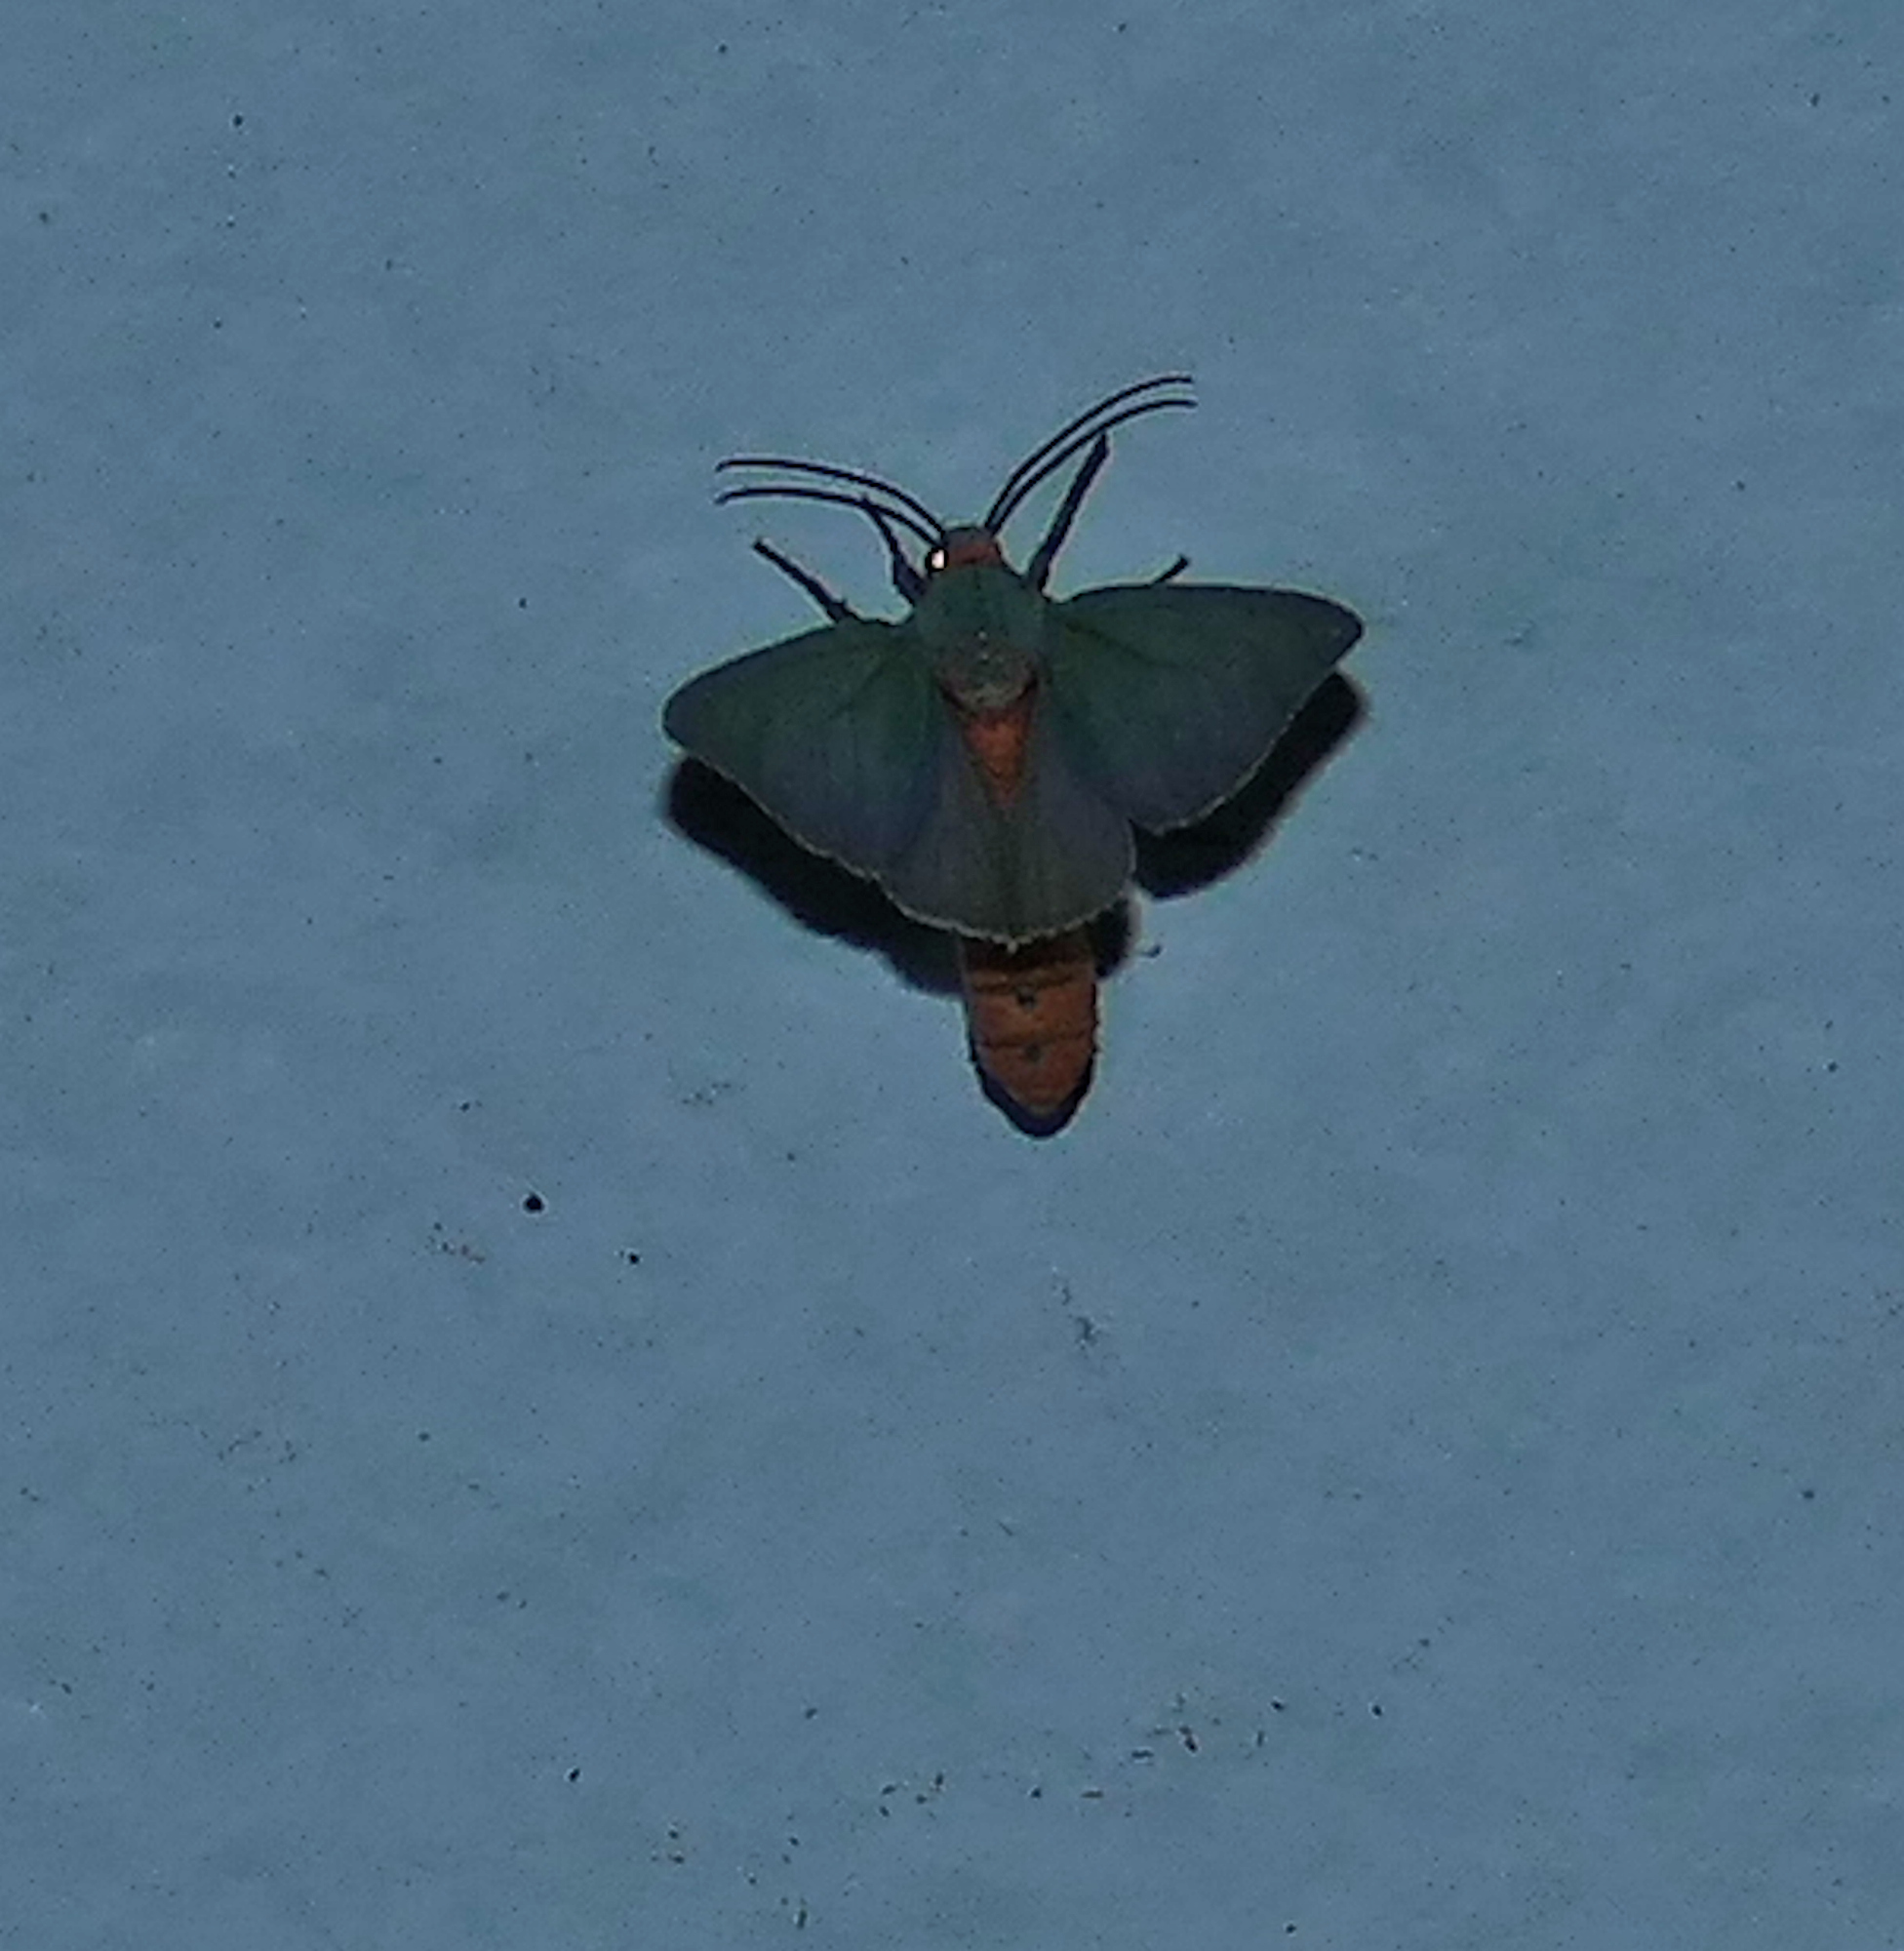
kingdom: Animalia
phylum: Arthropoda
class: Insecta
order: Lepidoptera
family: Erebidae
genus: Pygarctia
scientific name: Pygarctia murina
